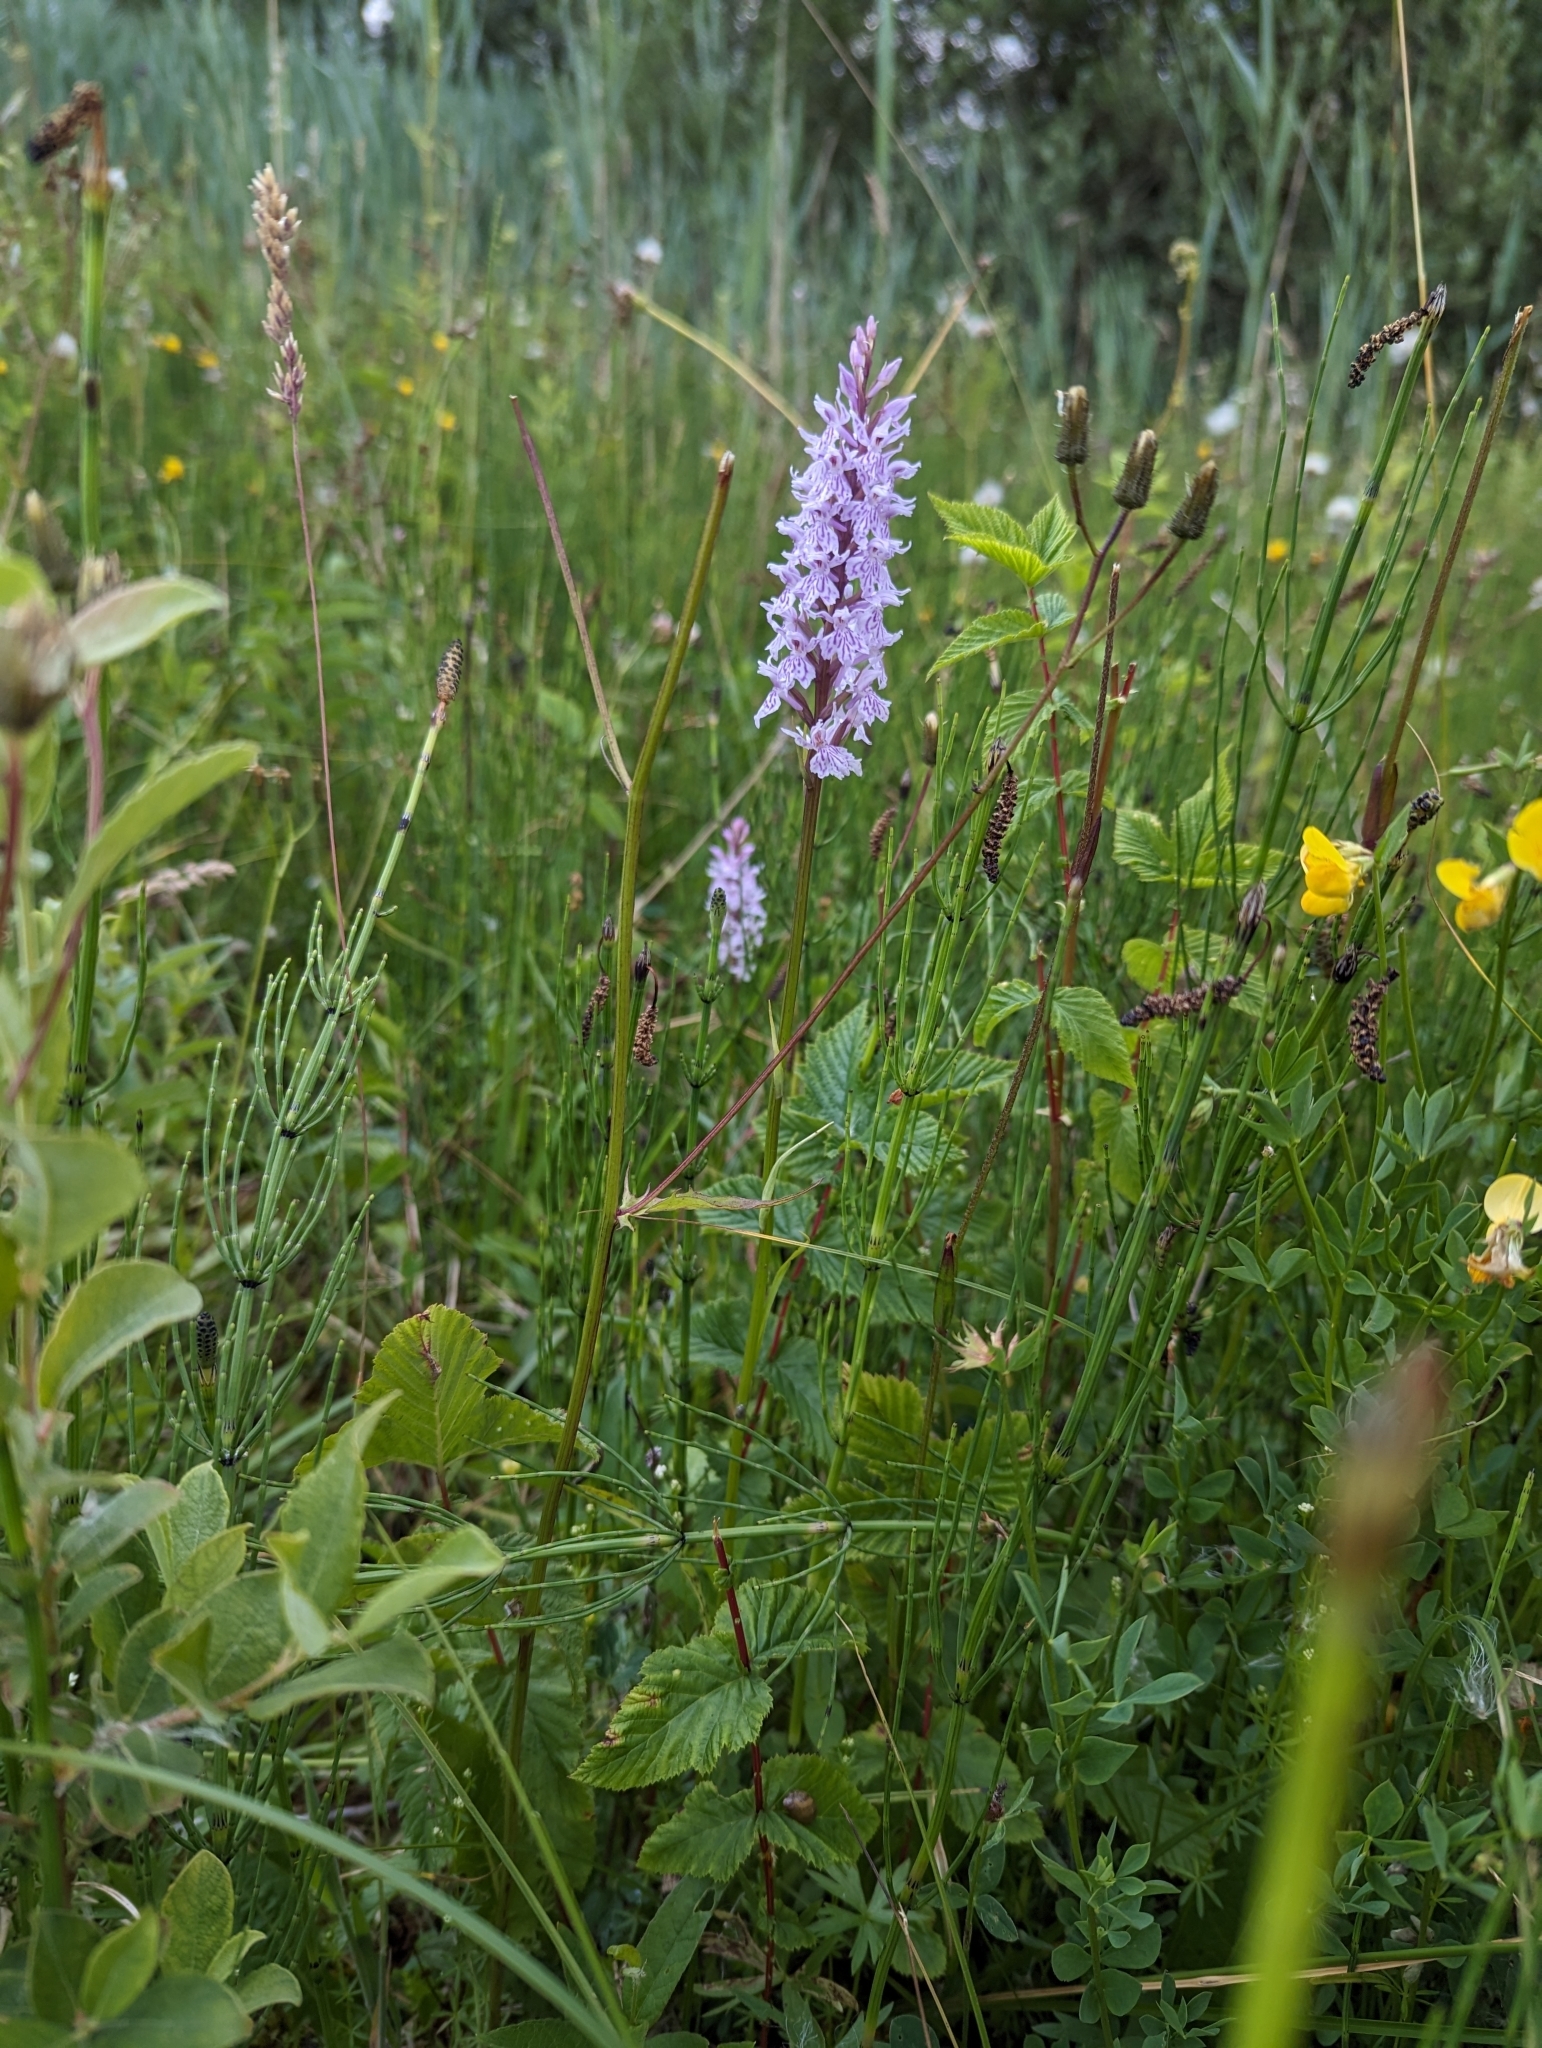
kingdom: Plantae
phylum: Tracheophyta
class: Liliopsida
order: Asparagales
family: Orchidaceae
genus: Dactylorhiza
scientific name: Dactylorhiza maculata
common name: Heath spotted-orchid
